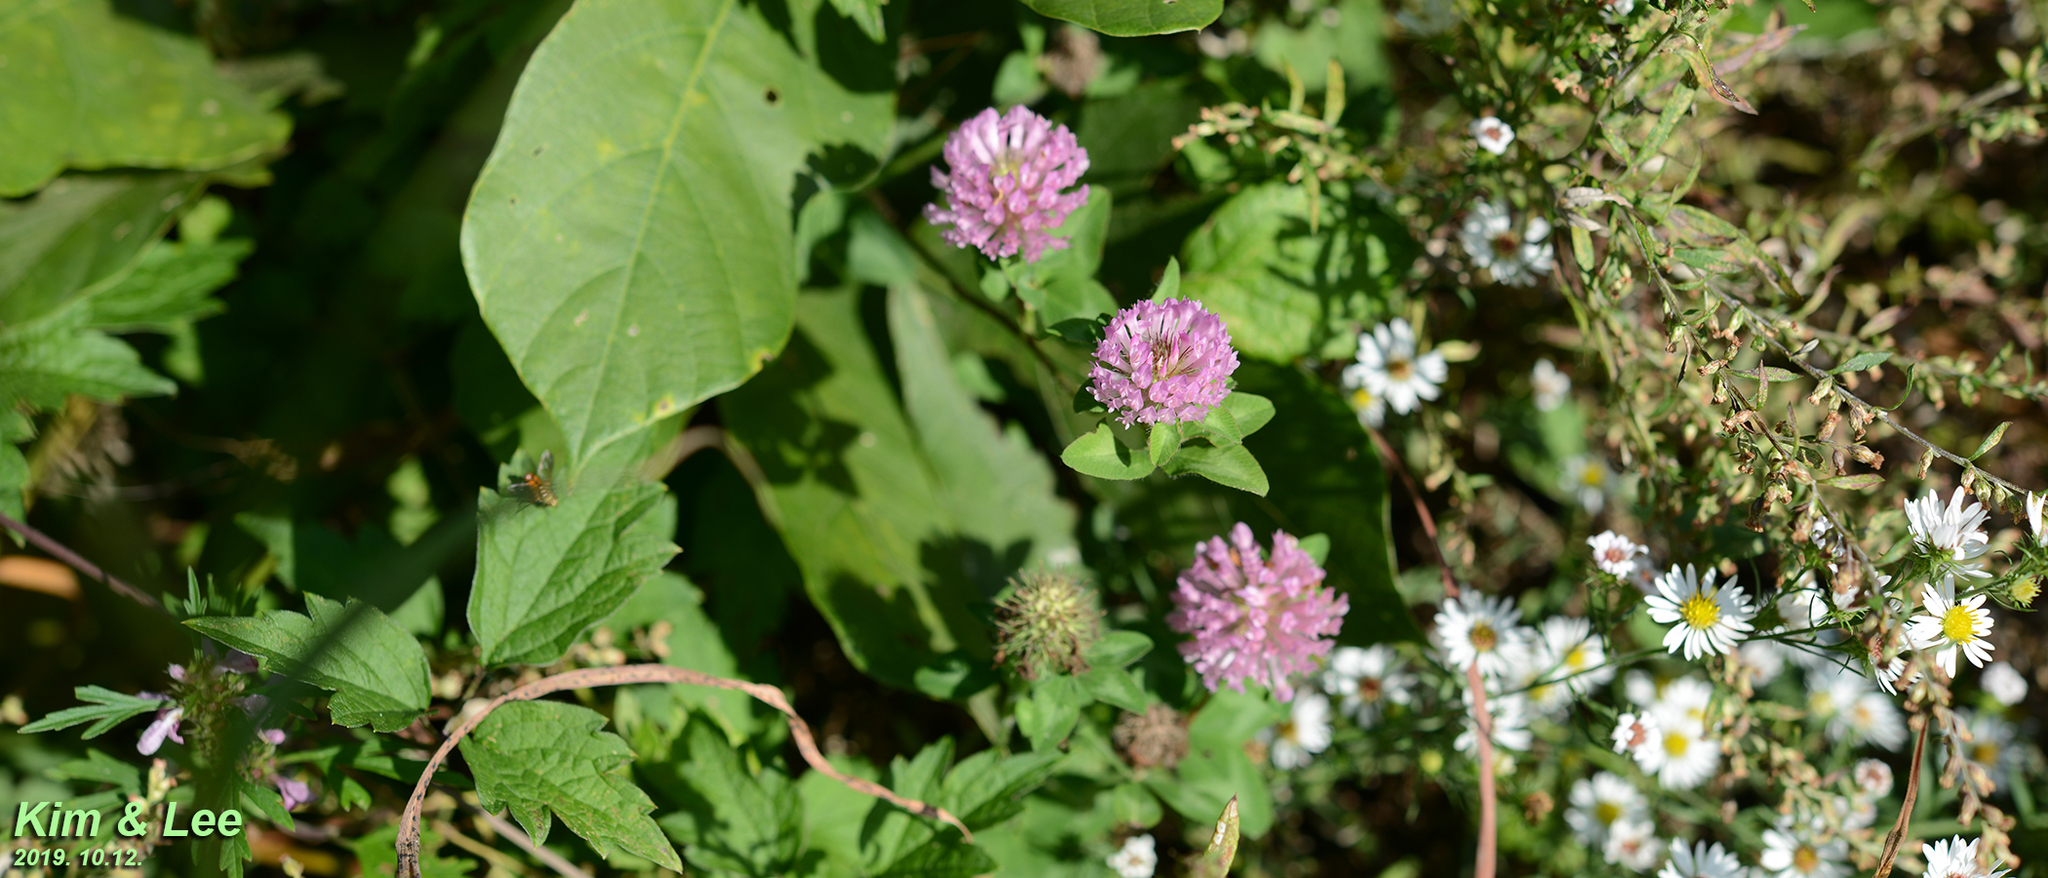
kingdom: Plantae
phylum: Tracheophyta
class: Magnoliopsida
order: Fabales
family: Fabaceae
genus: Trifolium
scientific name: Trifolium pratense
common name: Red clover
